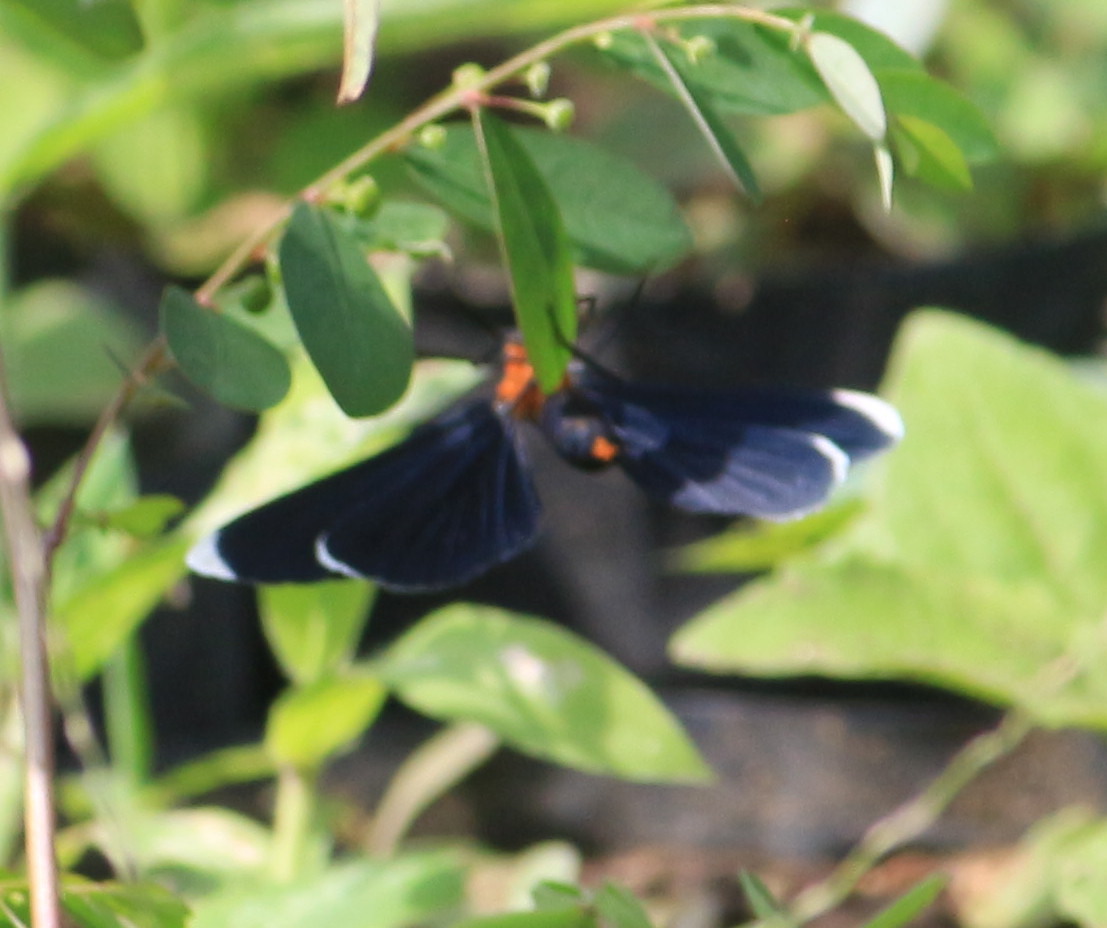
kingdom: Animalia
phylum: Arthropoda
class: Insecta
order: Lepidoptera
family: Geometridae
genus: Melanchroia
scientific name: Melanchroia chephise
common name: White-tipped black
